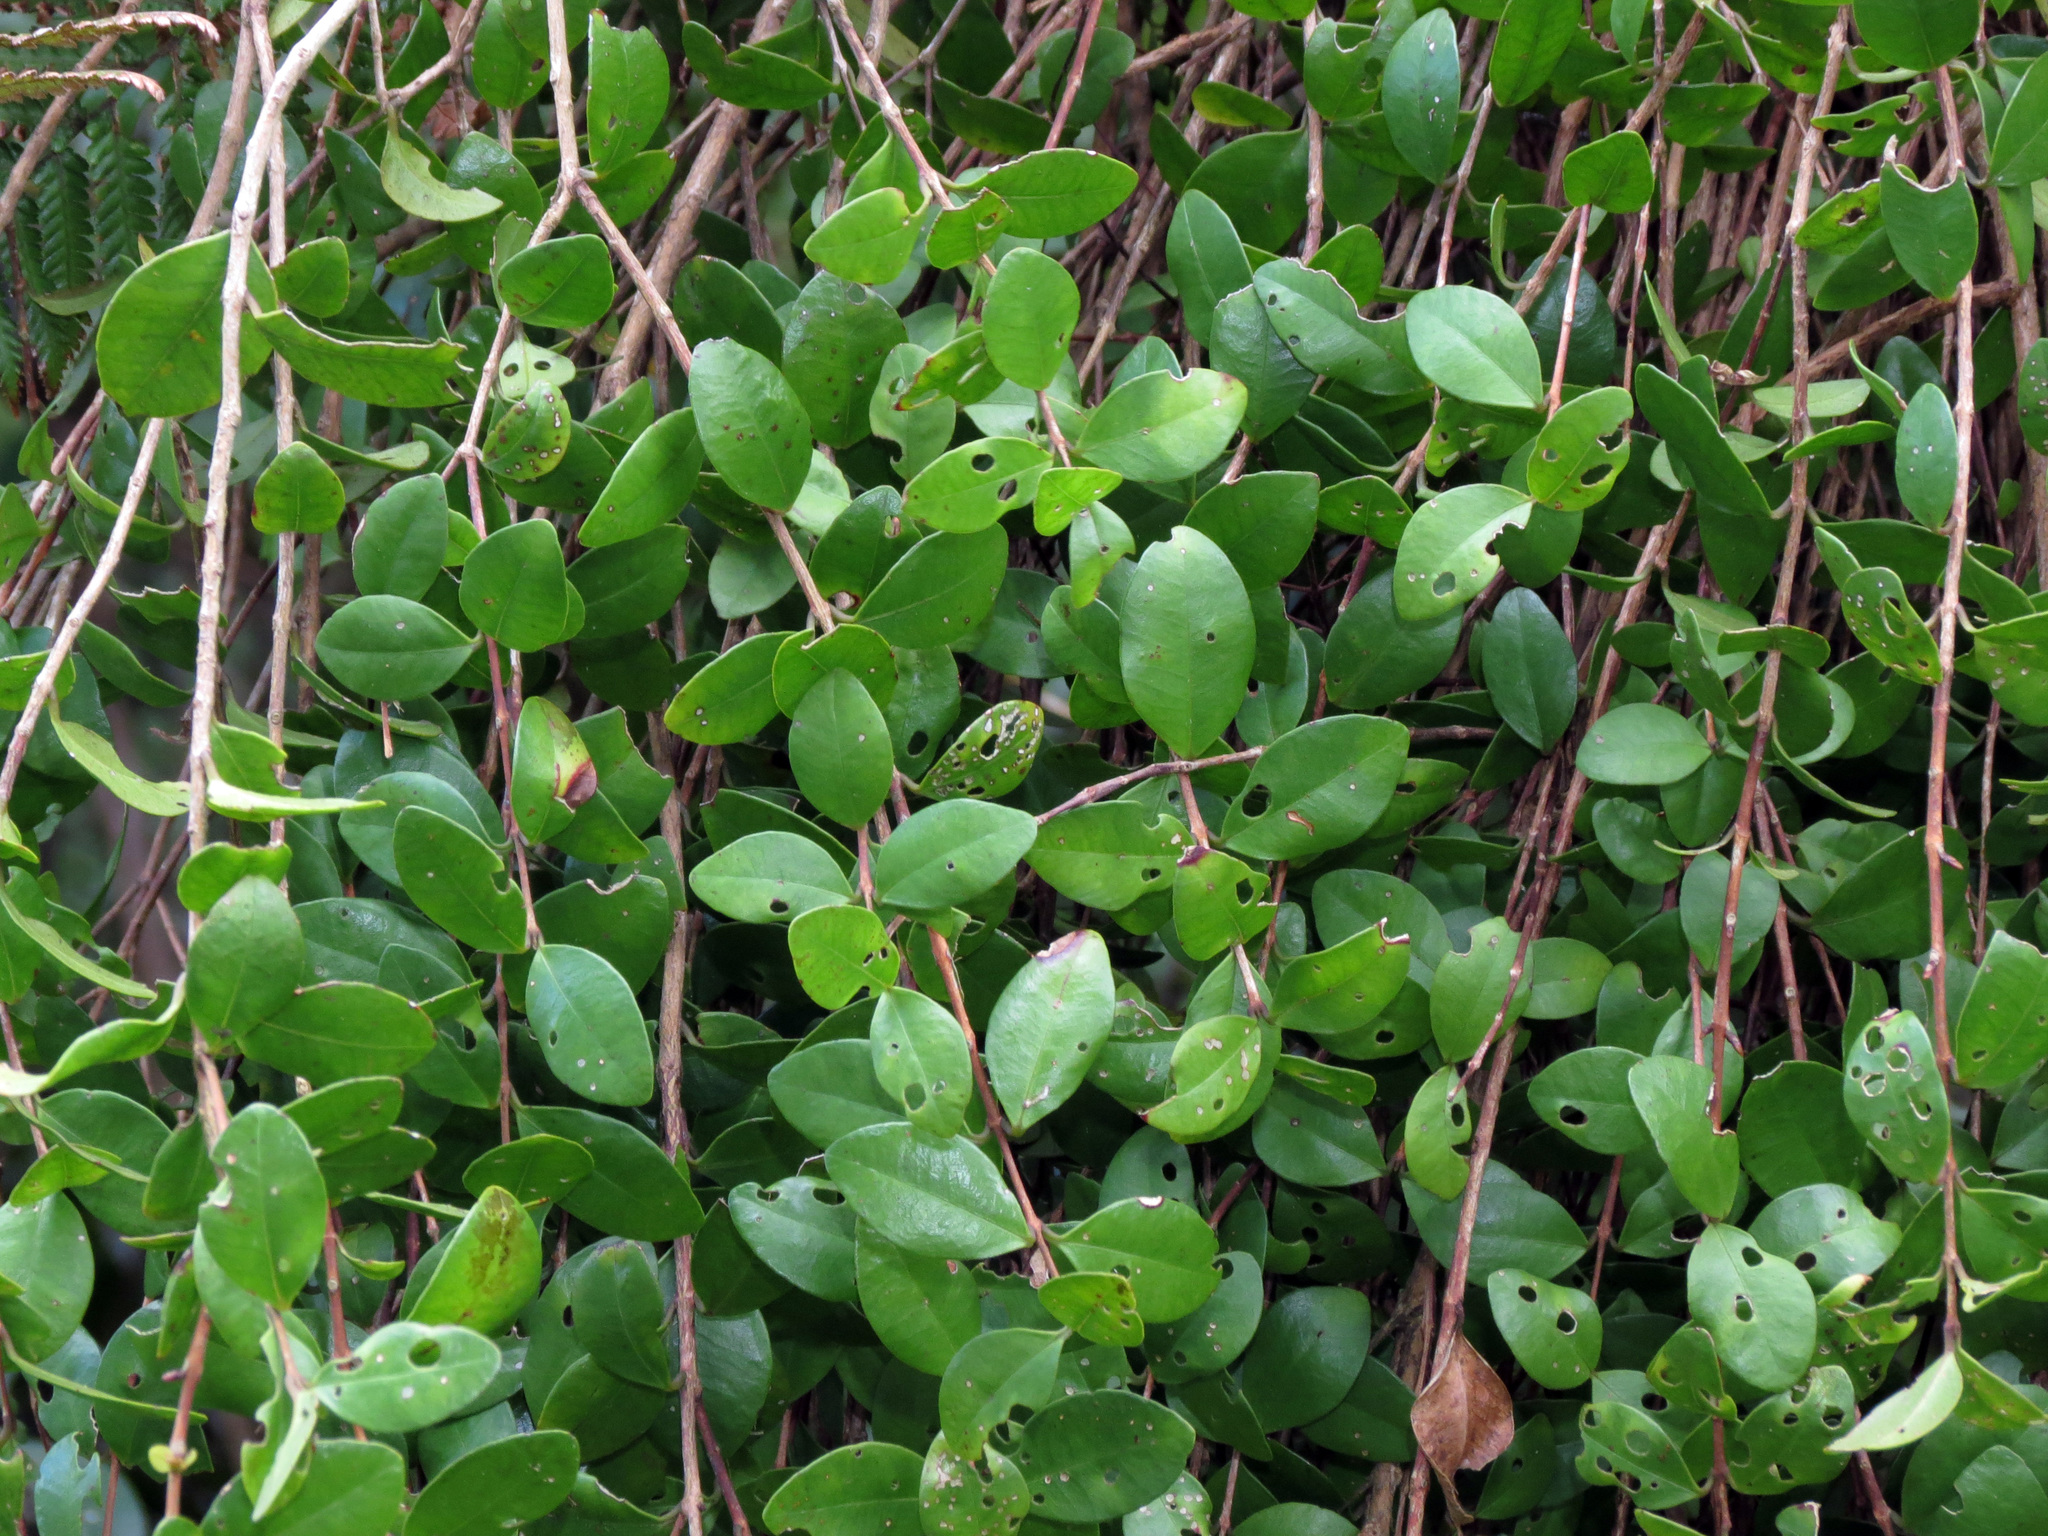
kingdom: Plantae
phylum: Tracheophyta
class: Magnoliopsida
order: Myrtales
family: Myrtaceae
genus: Metrosideros
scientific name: Metrosideros fulgens
